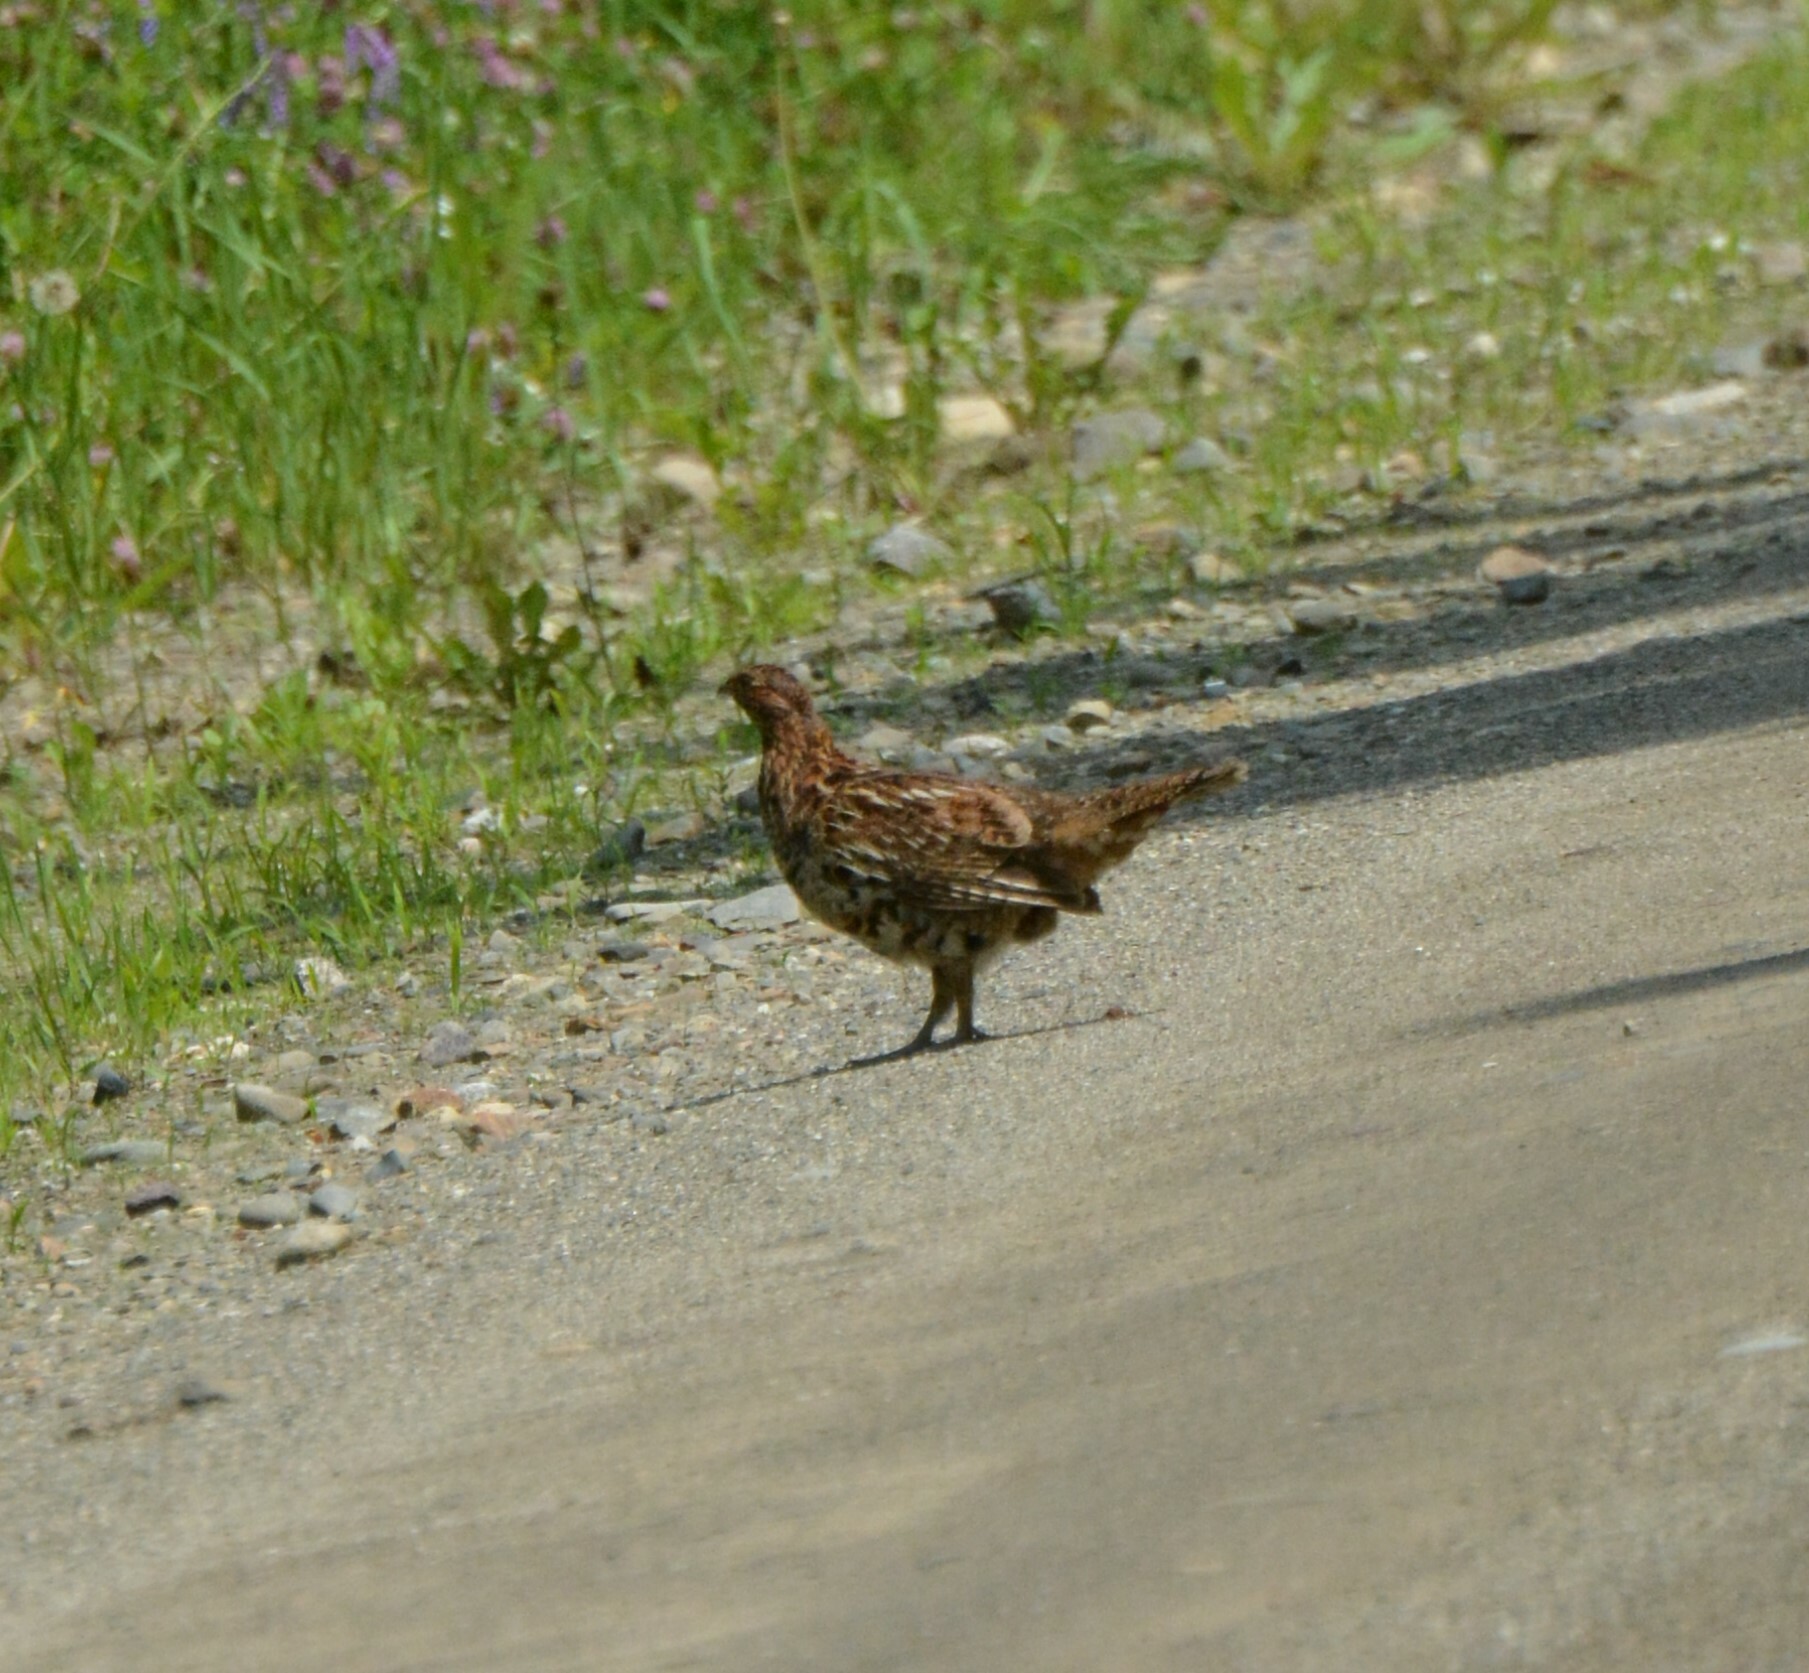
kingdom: Animalia
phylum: Chordata
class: Aves
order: Galliformes
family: Phasianidae
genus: Bonasa
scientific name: Bonasa umbellus
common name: Ruffed grouse
